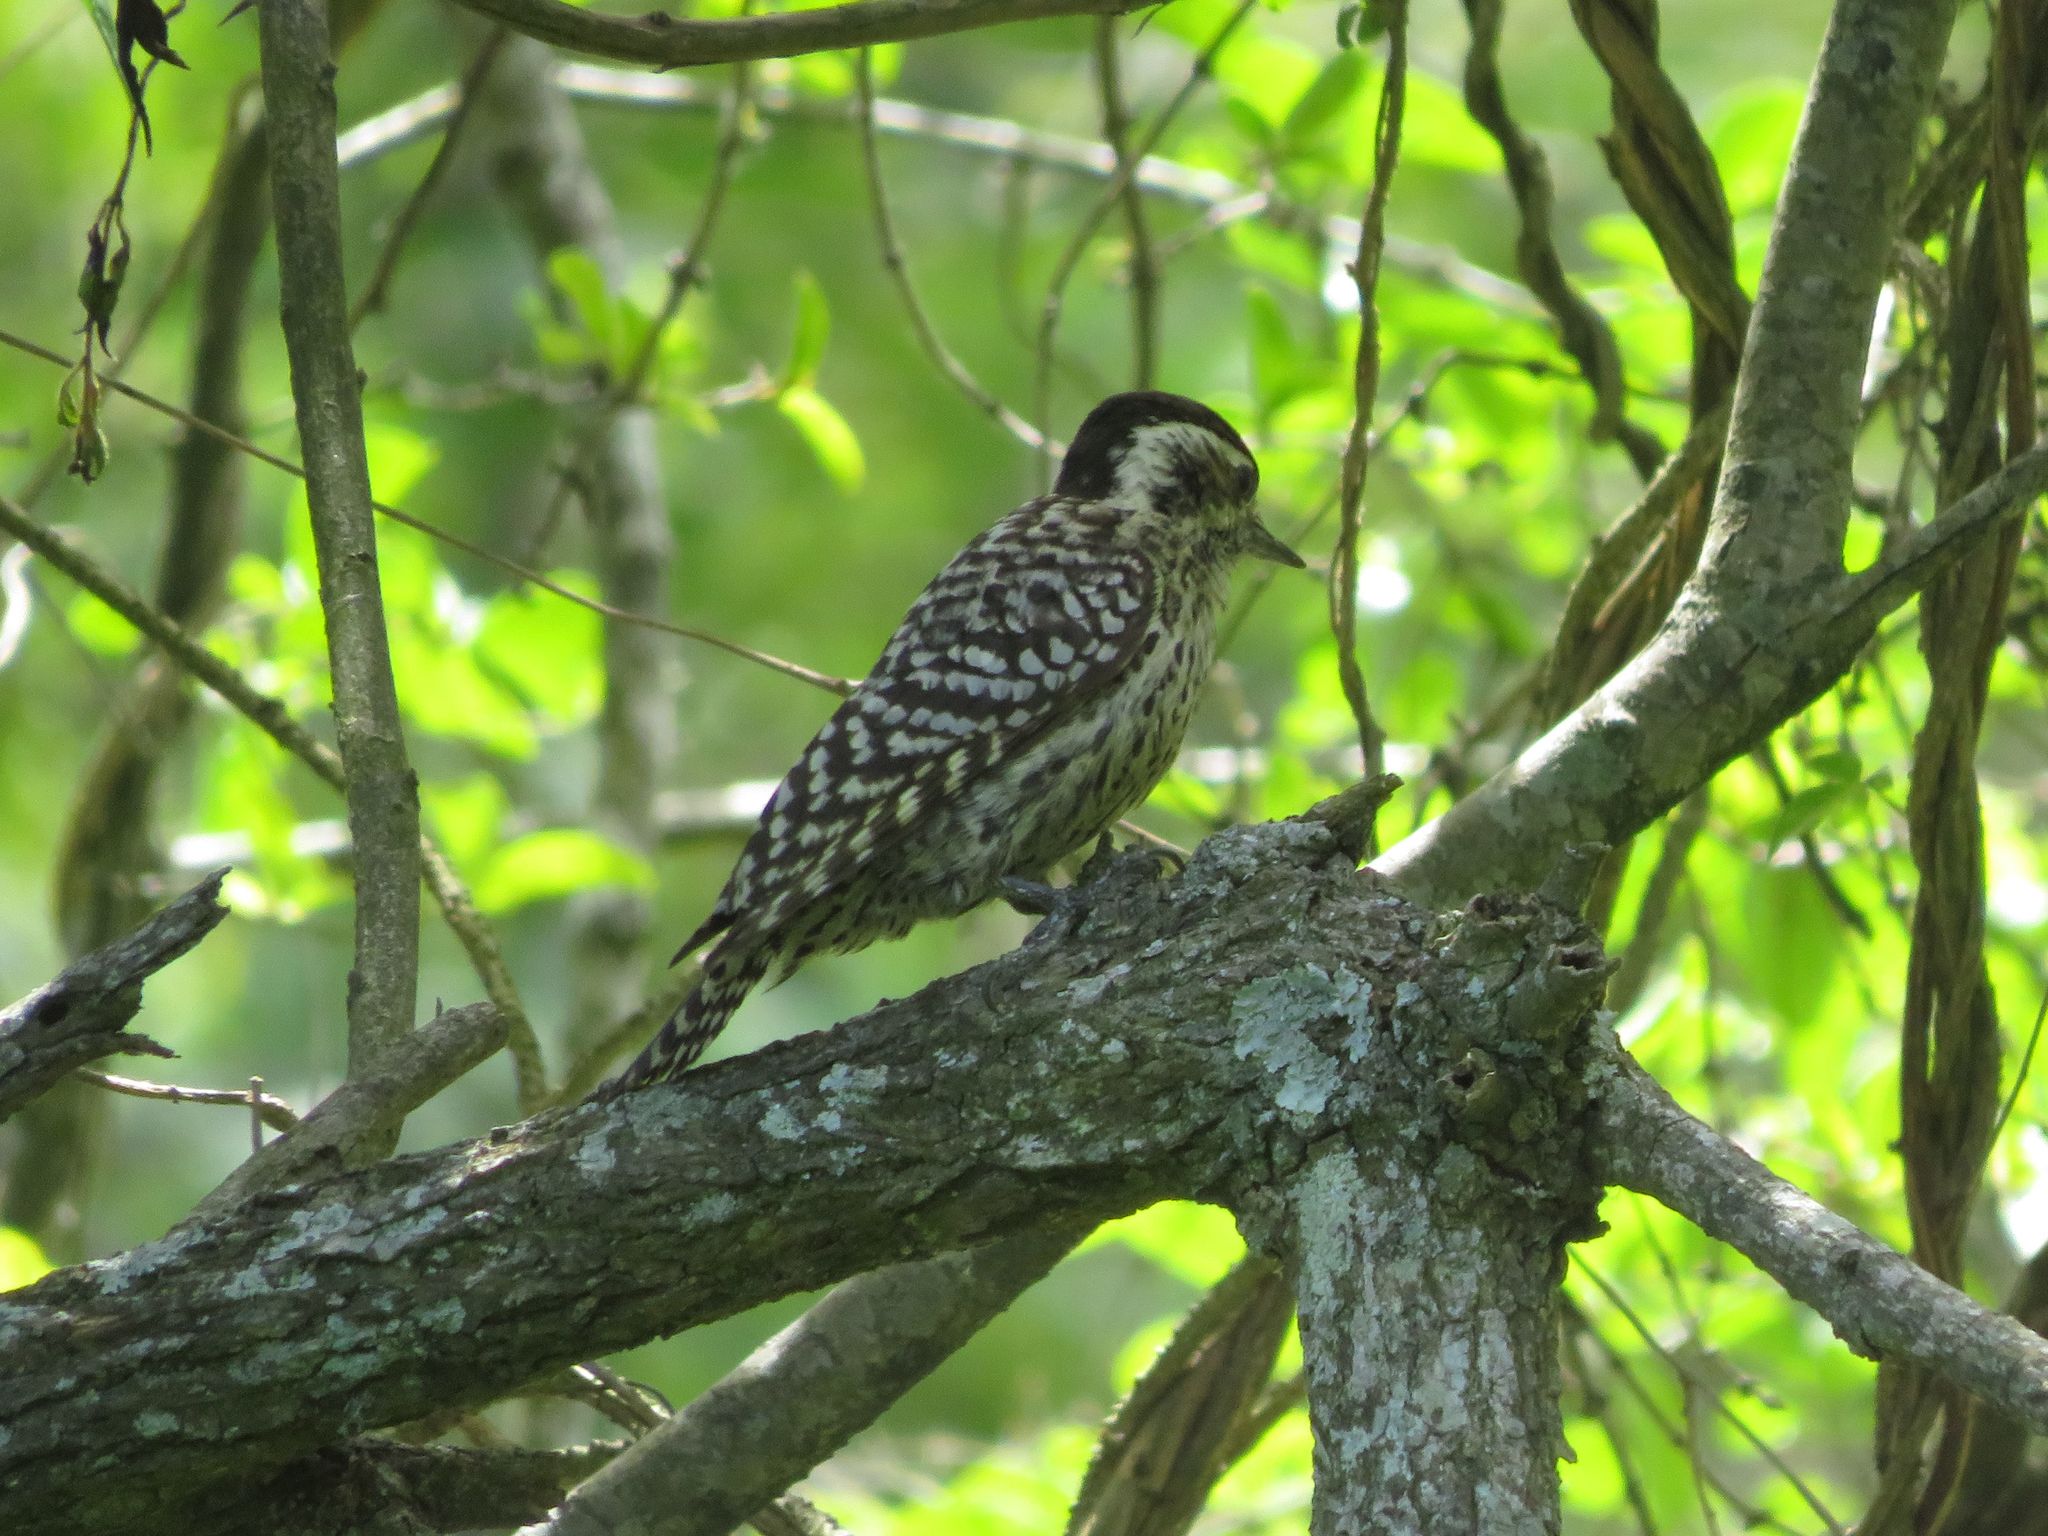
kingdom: Animalia
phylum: Chordata
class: Aves
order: Piciformes
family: Picidae
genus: Veniliornis
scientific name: Veniliornis mixtus
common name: Checkered woodpecker
